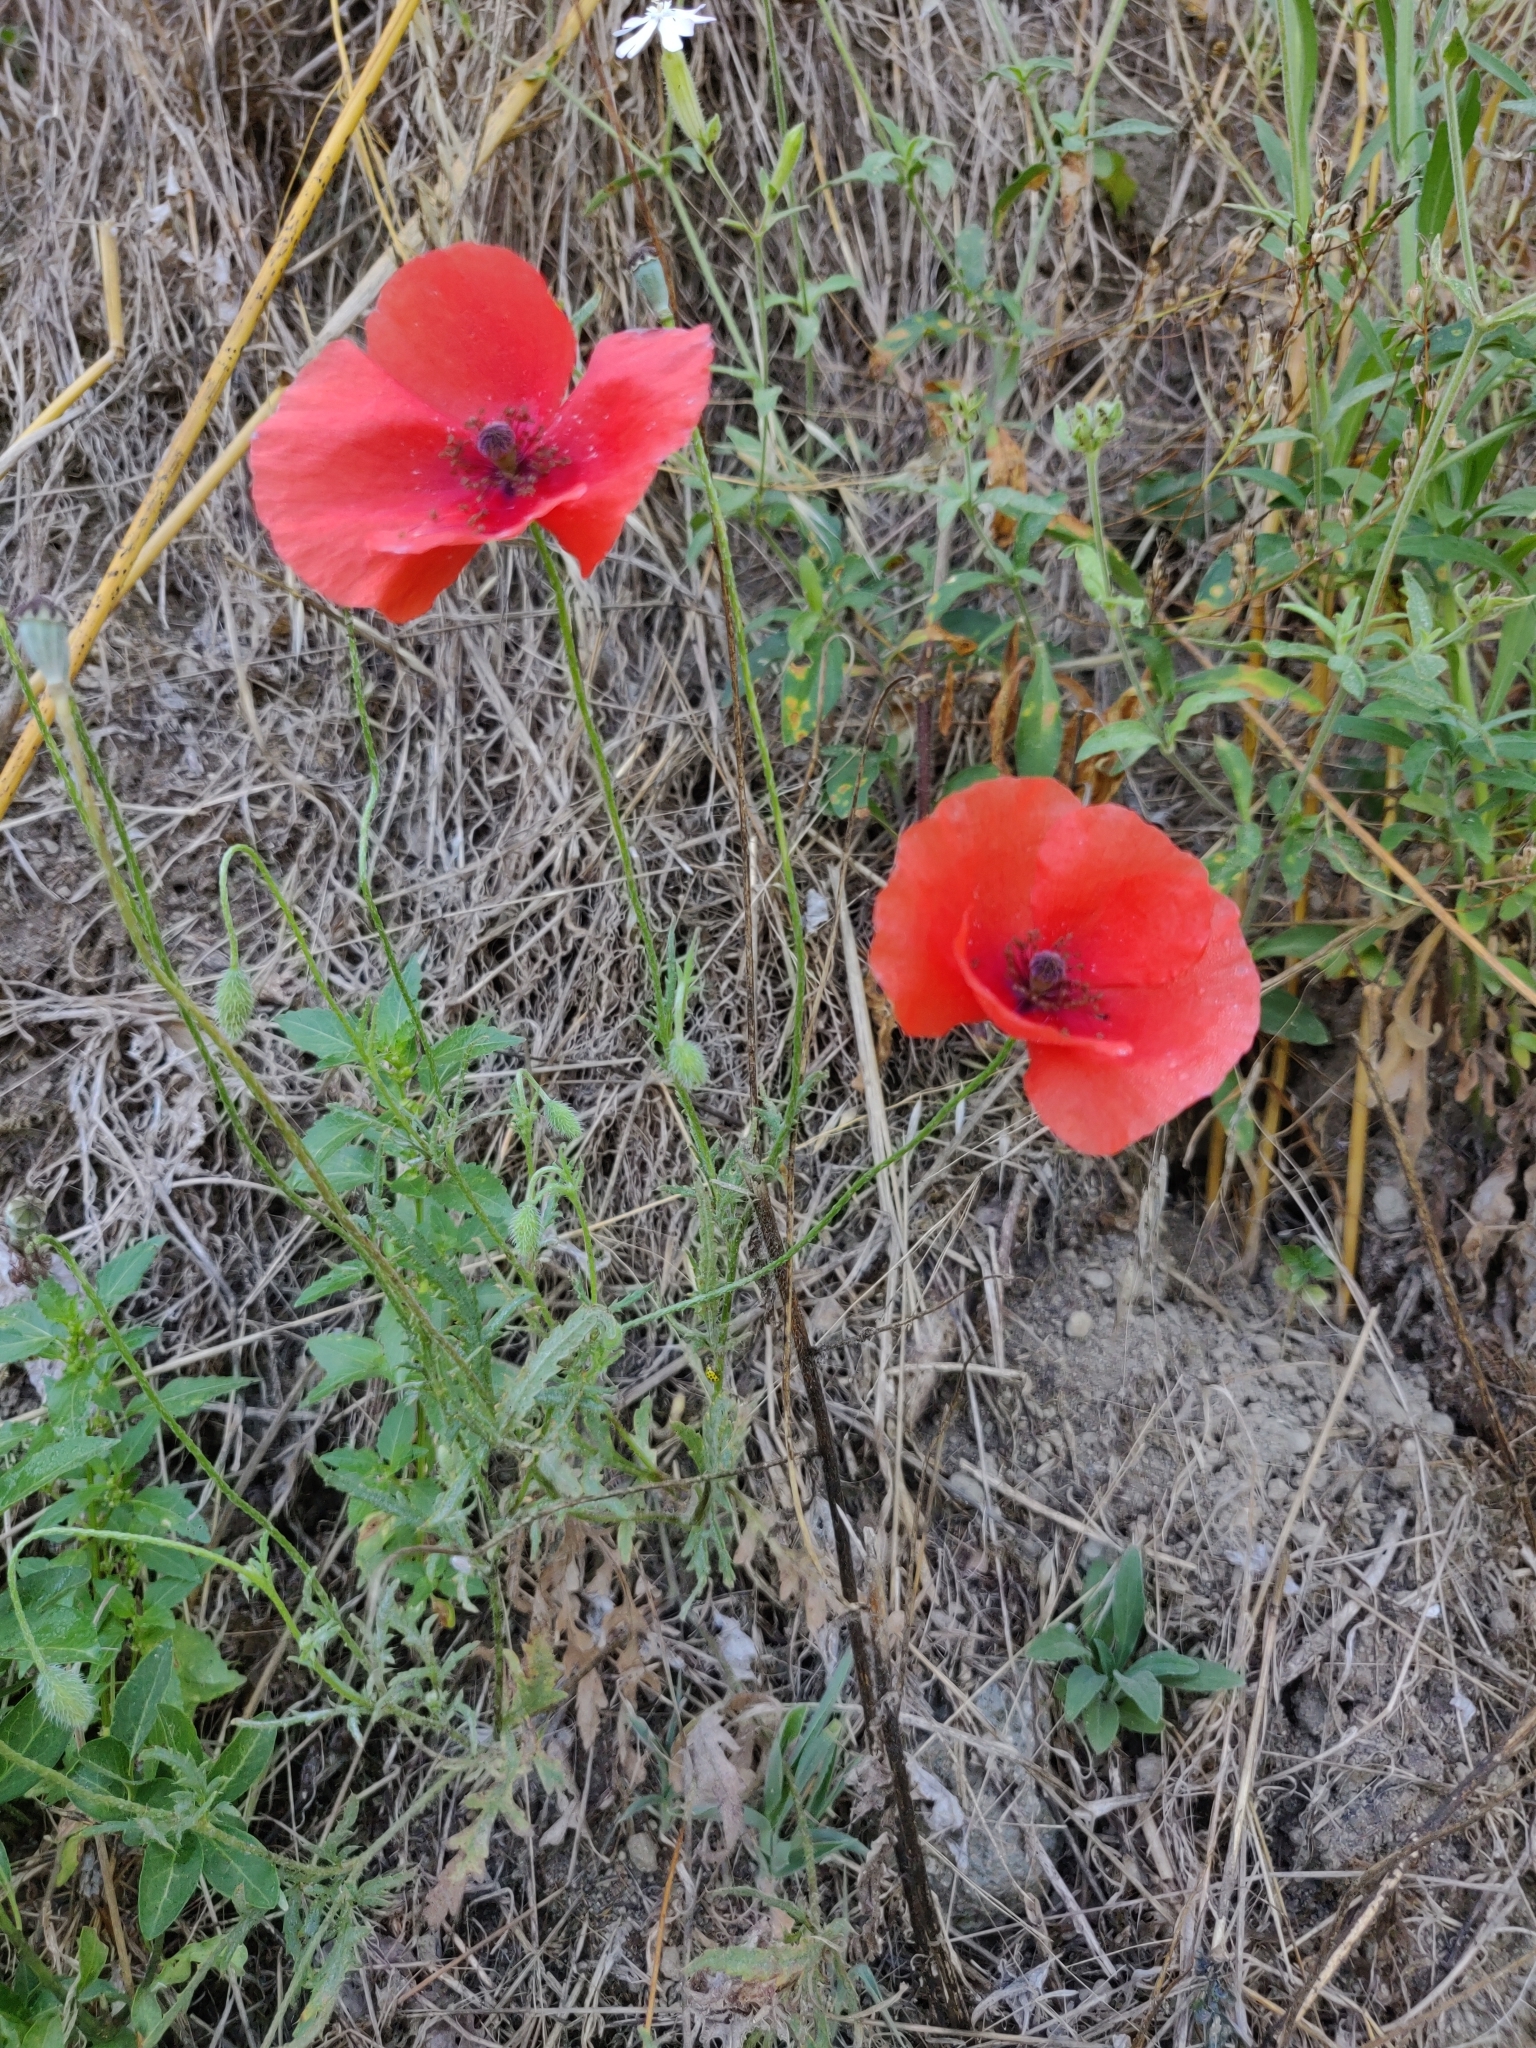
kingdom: Plantae
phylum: Tracheophyta
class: Magnoliopsida
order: Ranunculales
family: Papaveraceae
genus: Papaver
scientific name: Papaver rhoeas
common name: Corn poppy
